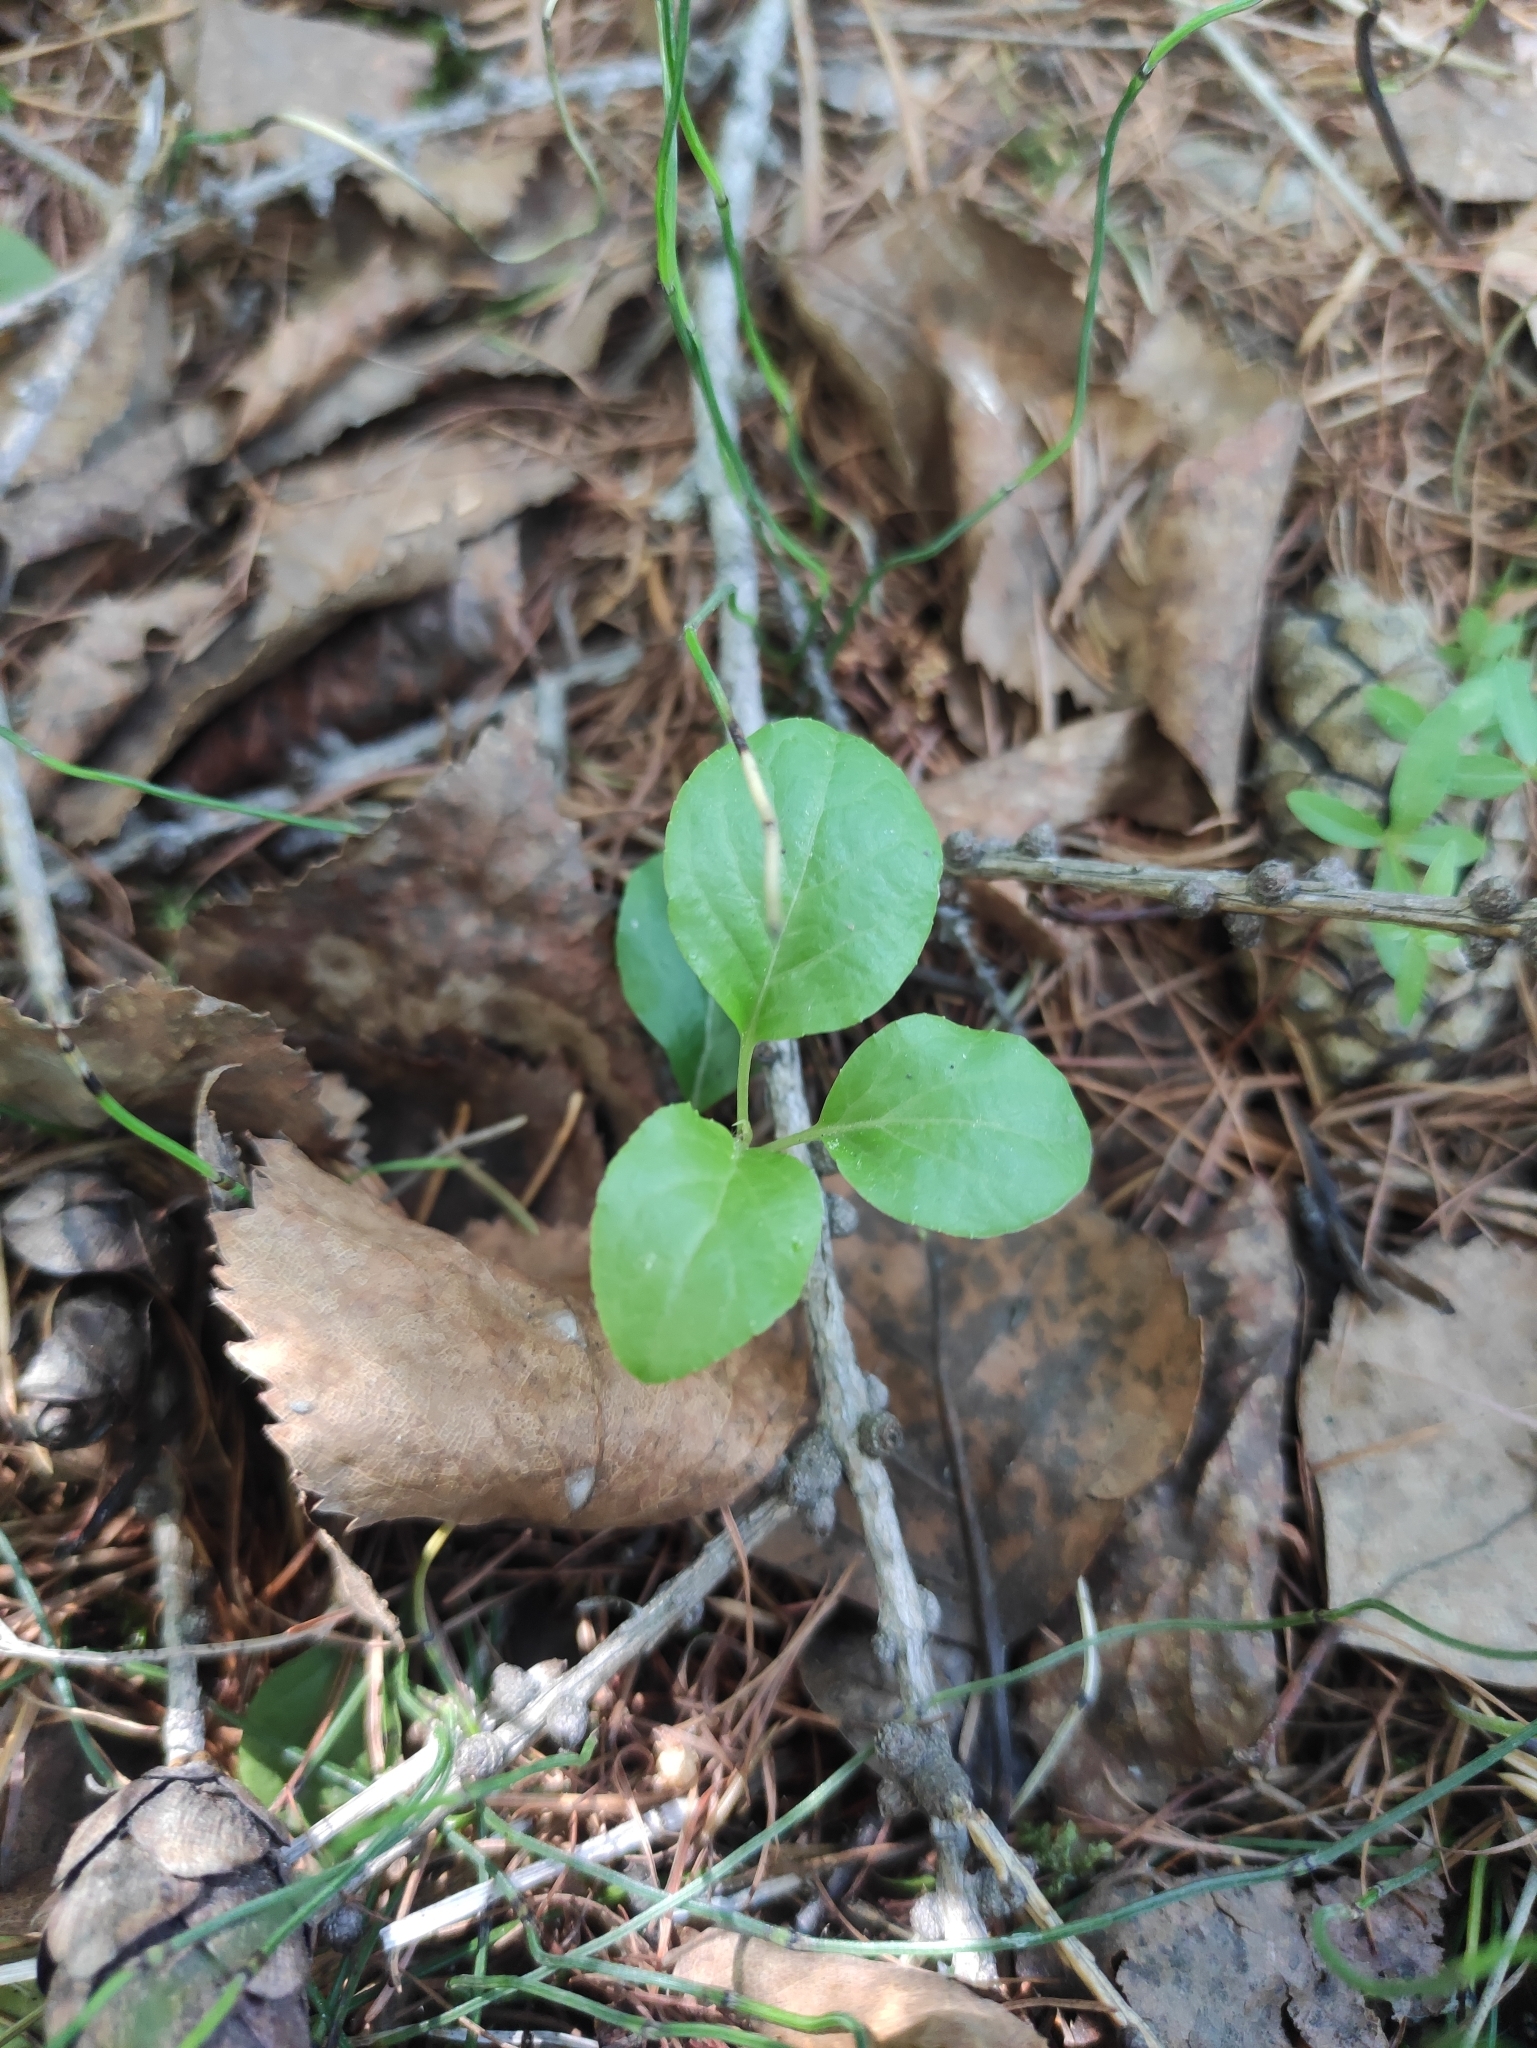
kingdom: Plantae
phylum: Tracheophyta
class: Magnoliopsida
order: Ericales
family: Ericaceae
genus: Orthilia
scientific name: Orthilia secunda
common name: One-sided orthilia
